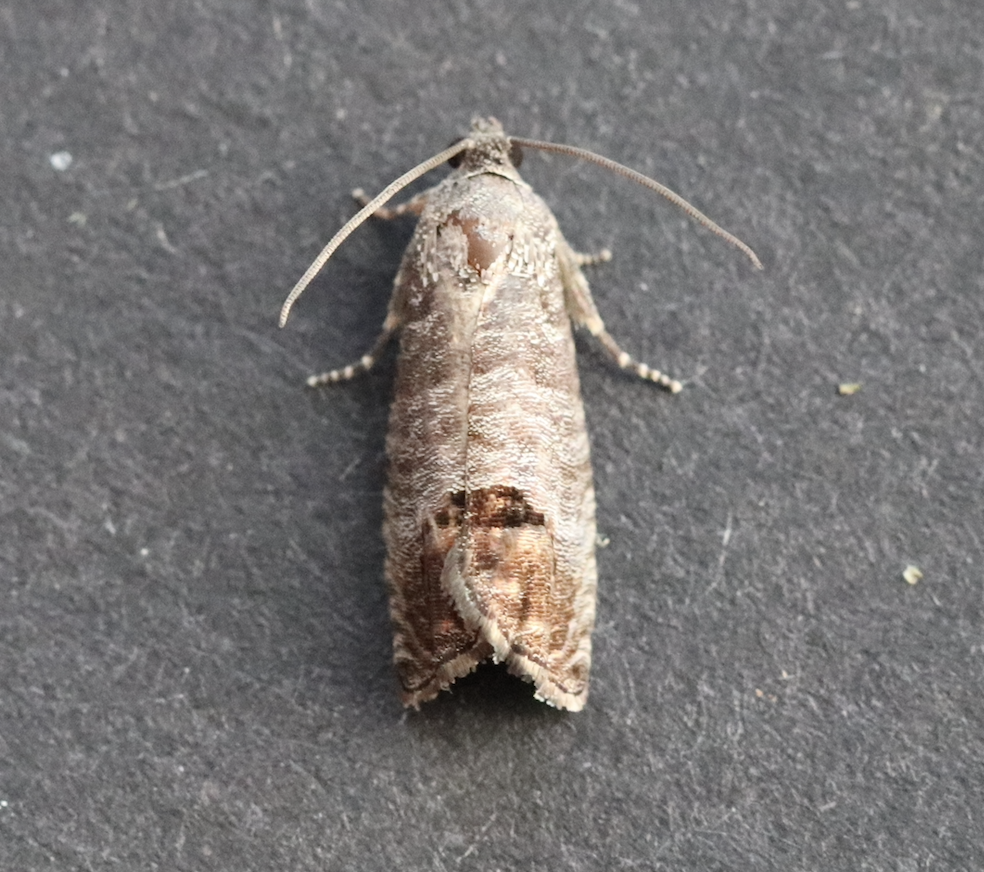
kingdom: Animalia
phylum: Arthropoda
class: Insecta
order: Lepidoptera
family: Tortricidae
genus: Cydia
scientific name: Cydia pomonella
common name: Codling moth
